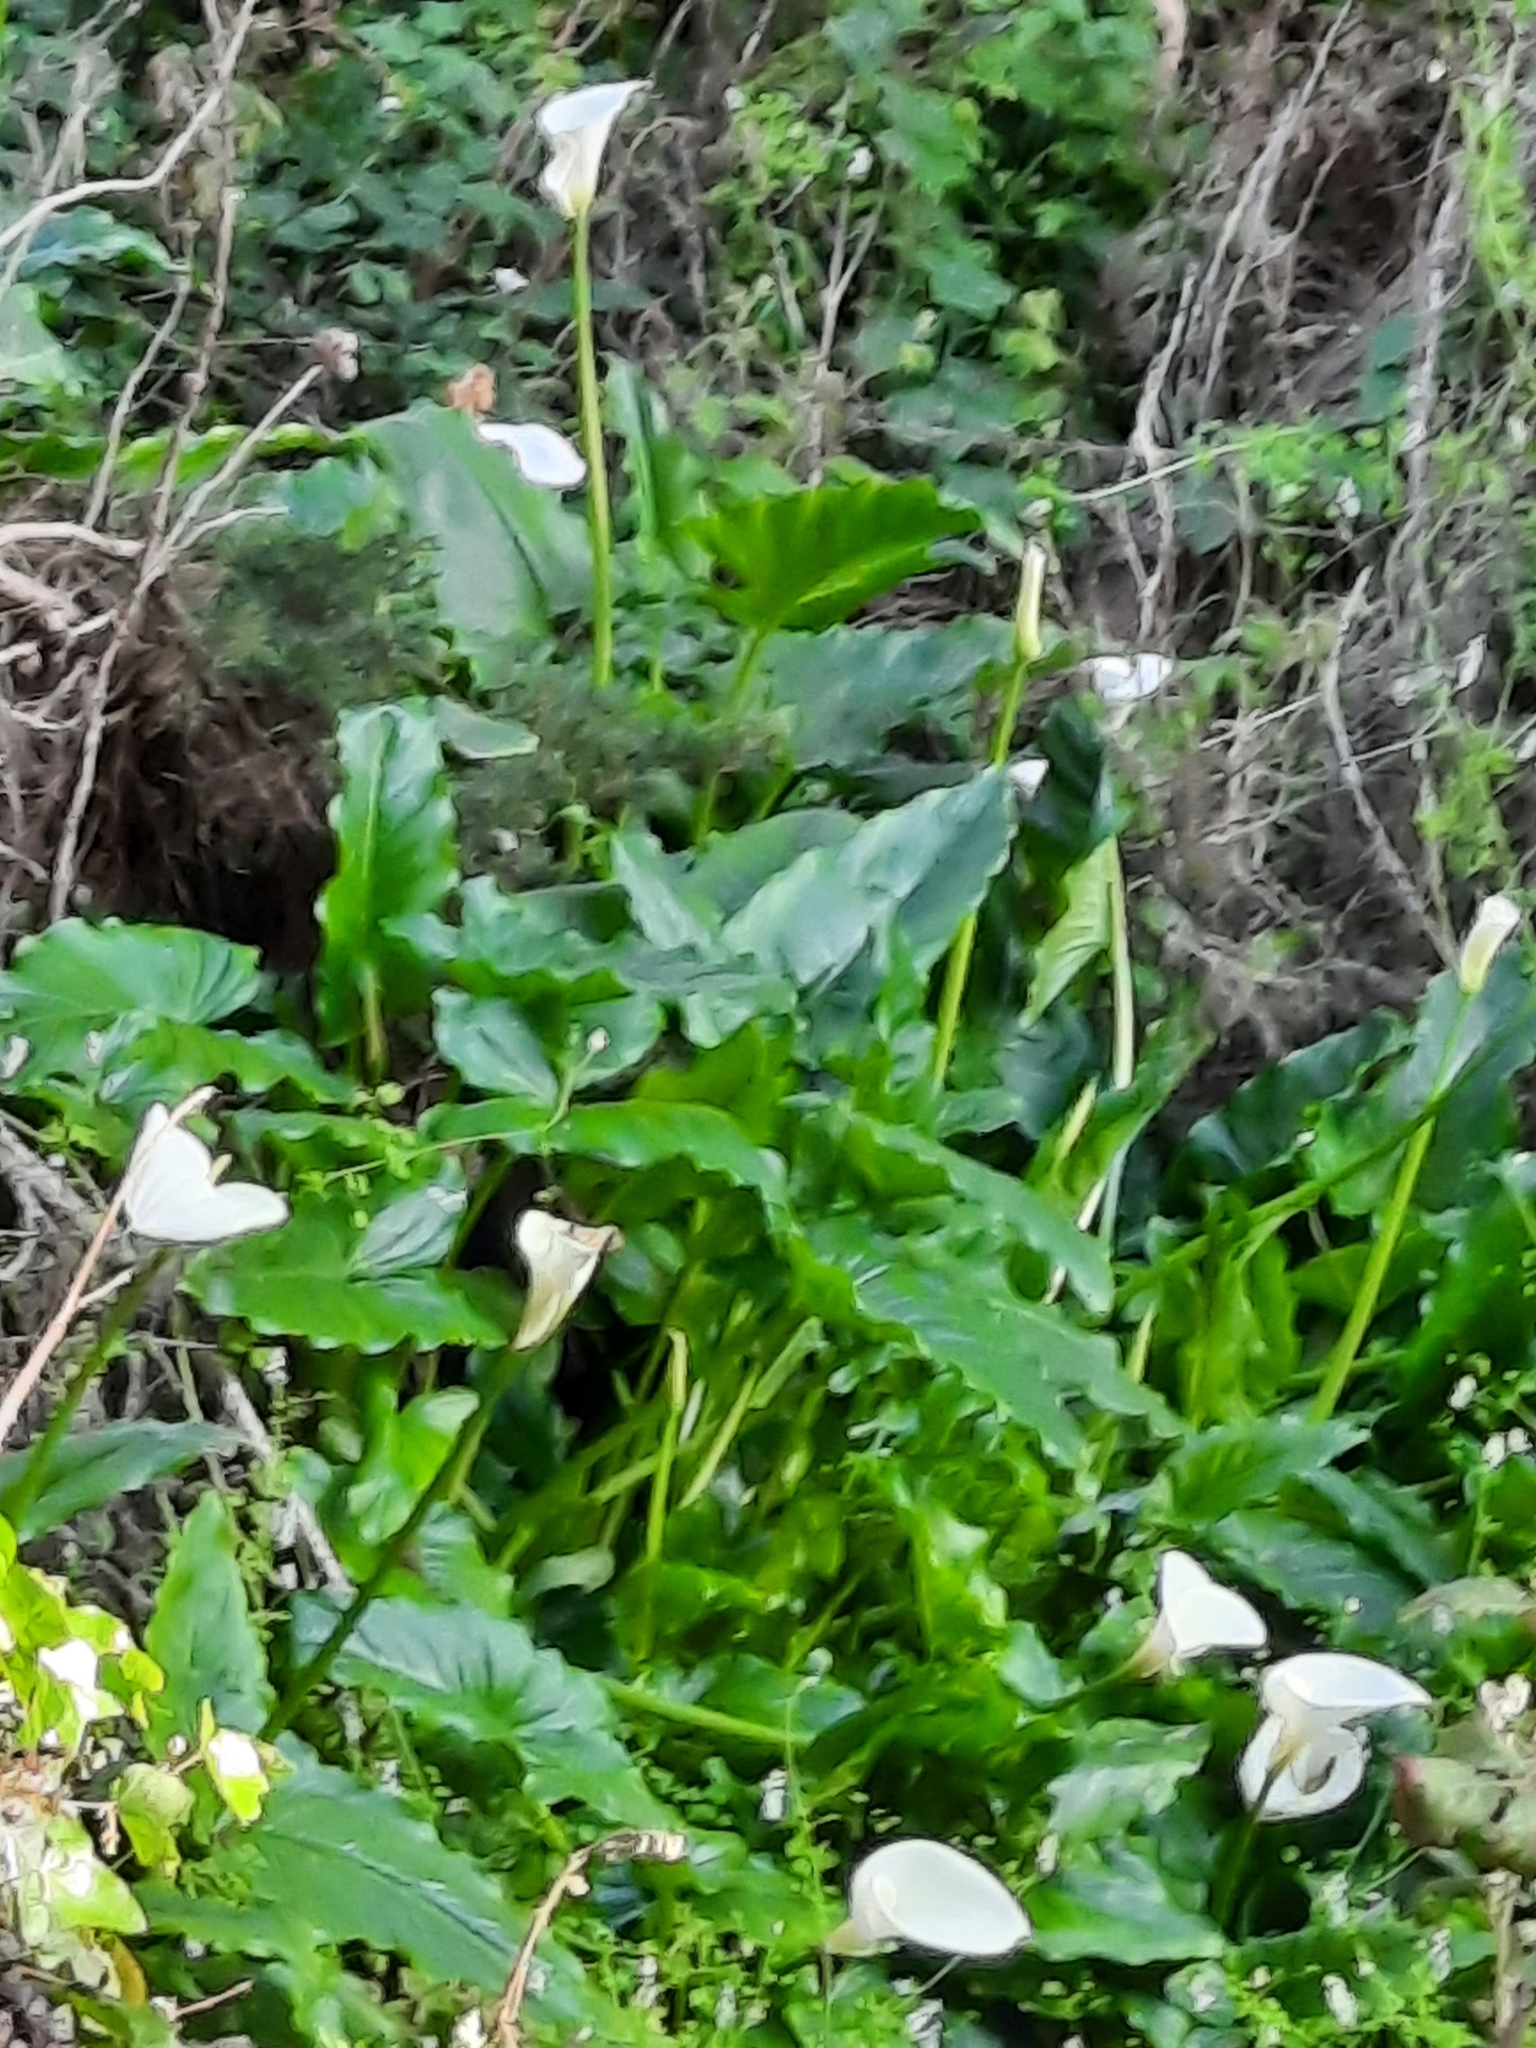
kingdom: Plantae
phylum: Tracheophyta
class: Liliopsida
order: Alismatales
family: Araceae
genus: Zantedeschia
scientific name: Zantedeschia aethiopica
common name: Altar-lily
